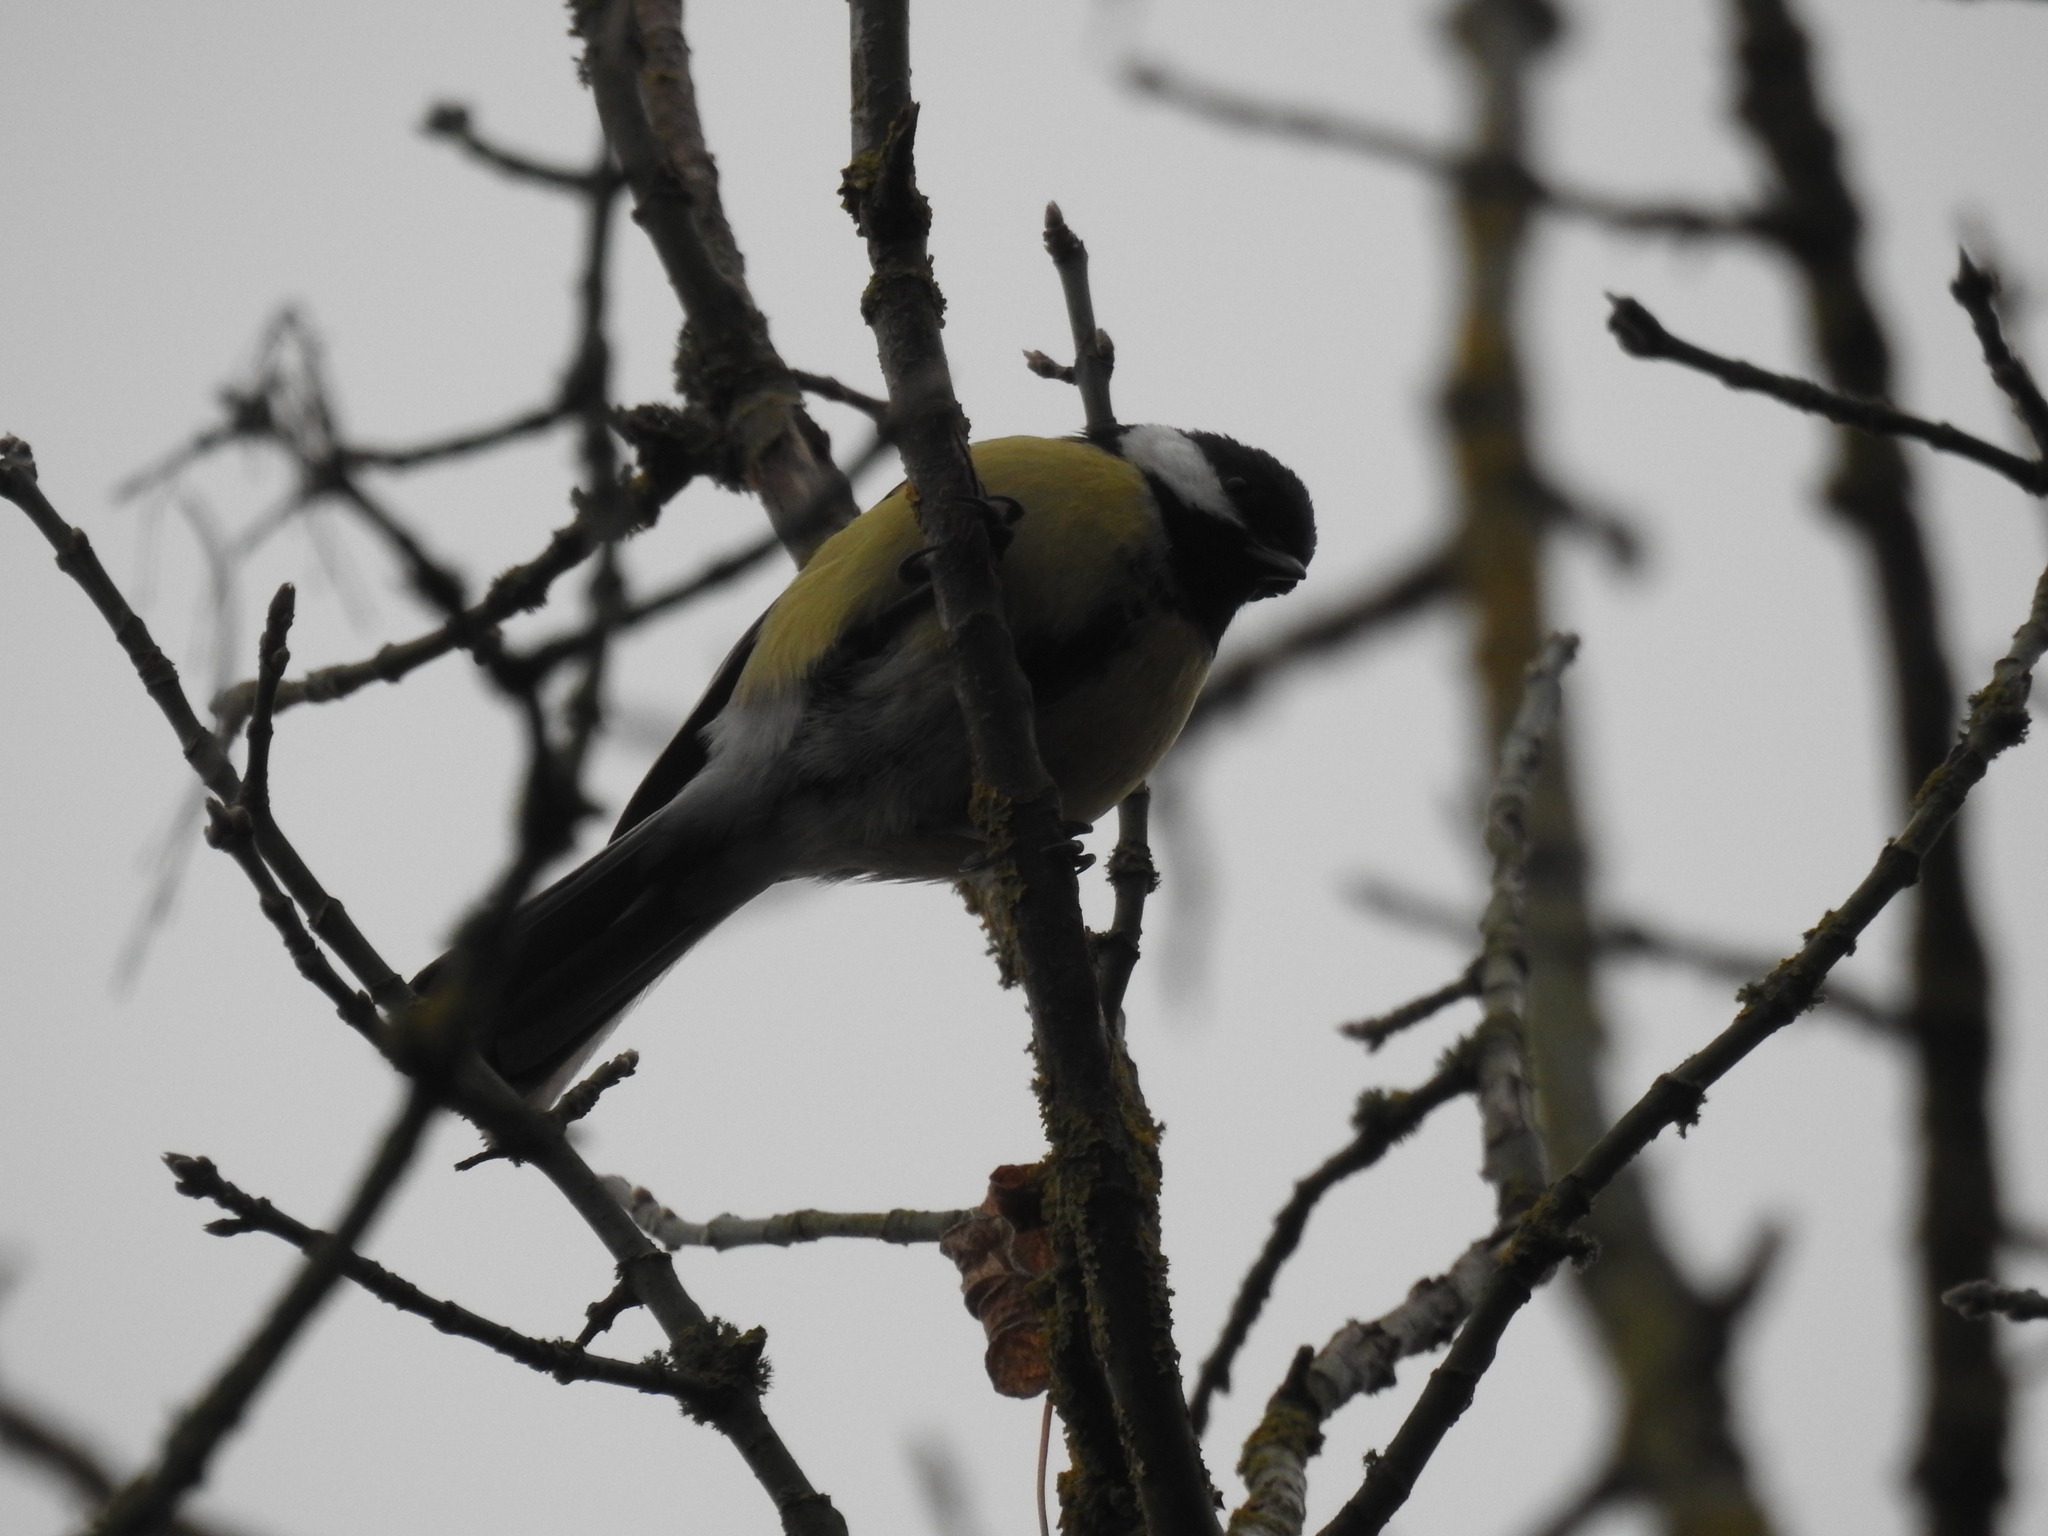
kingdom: Animalia
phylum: Chordata
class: Aves
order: Passeriformes
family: Paridae
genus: Parus
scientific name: Parus major
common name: Great tit
